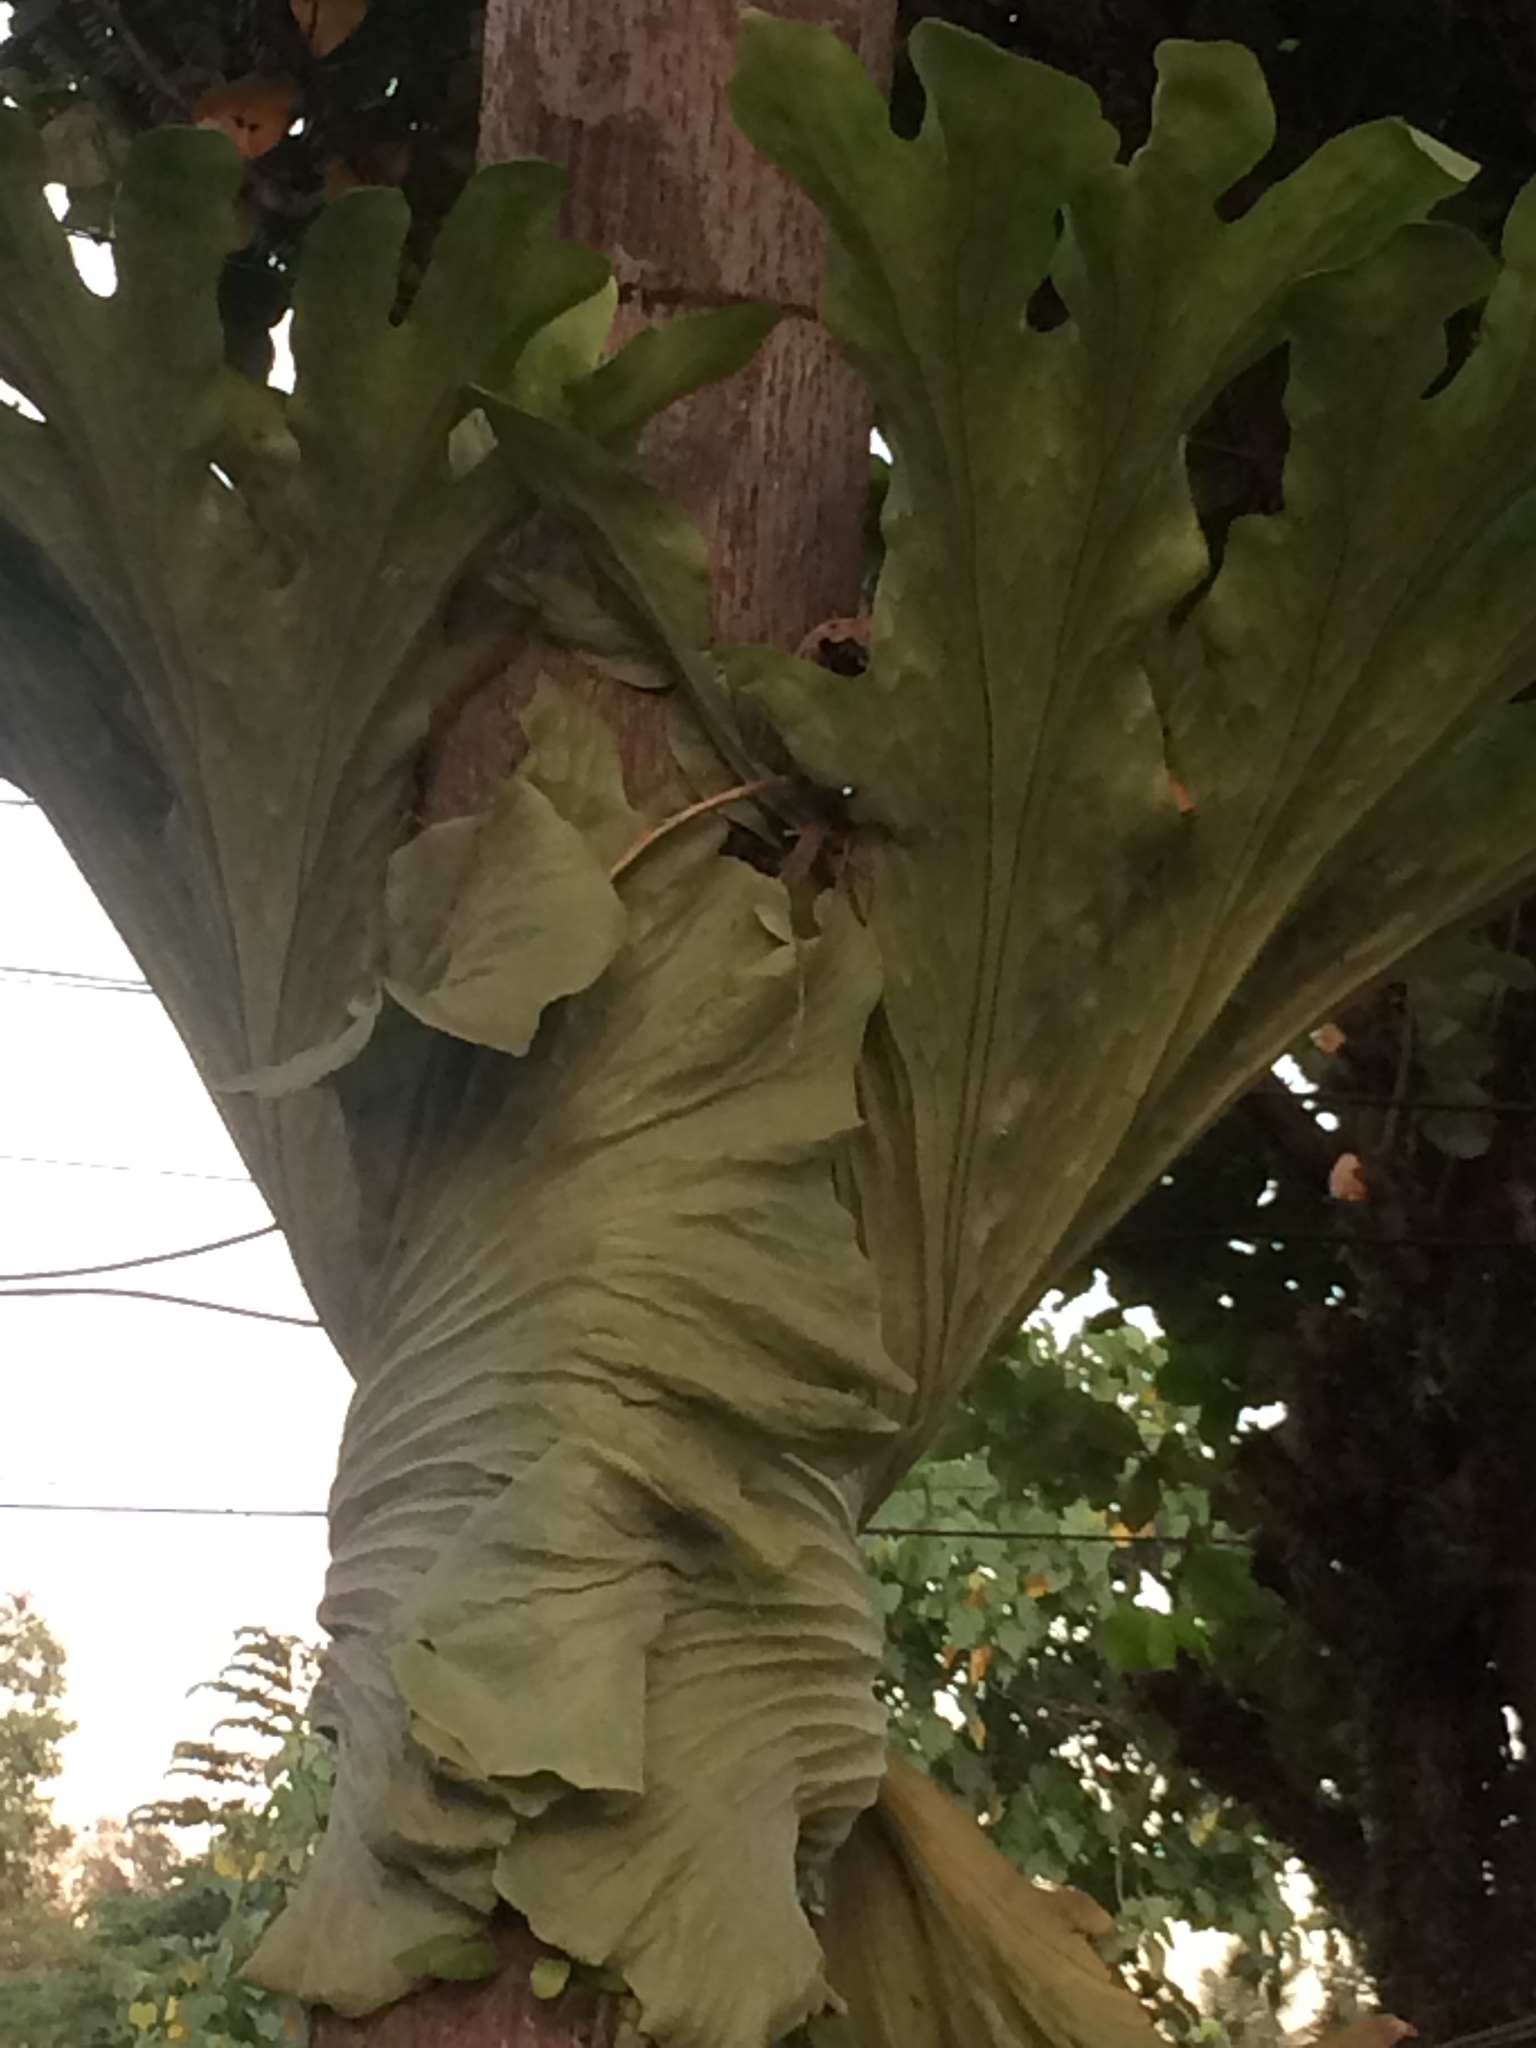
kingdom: Plantae
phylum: Tracheophyta
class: Polypodiopsida
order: Polypodiales
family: Polypodiaceae
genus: Platycerium
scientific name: Platycerium grande
